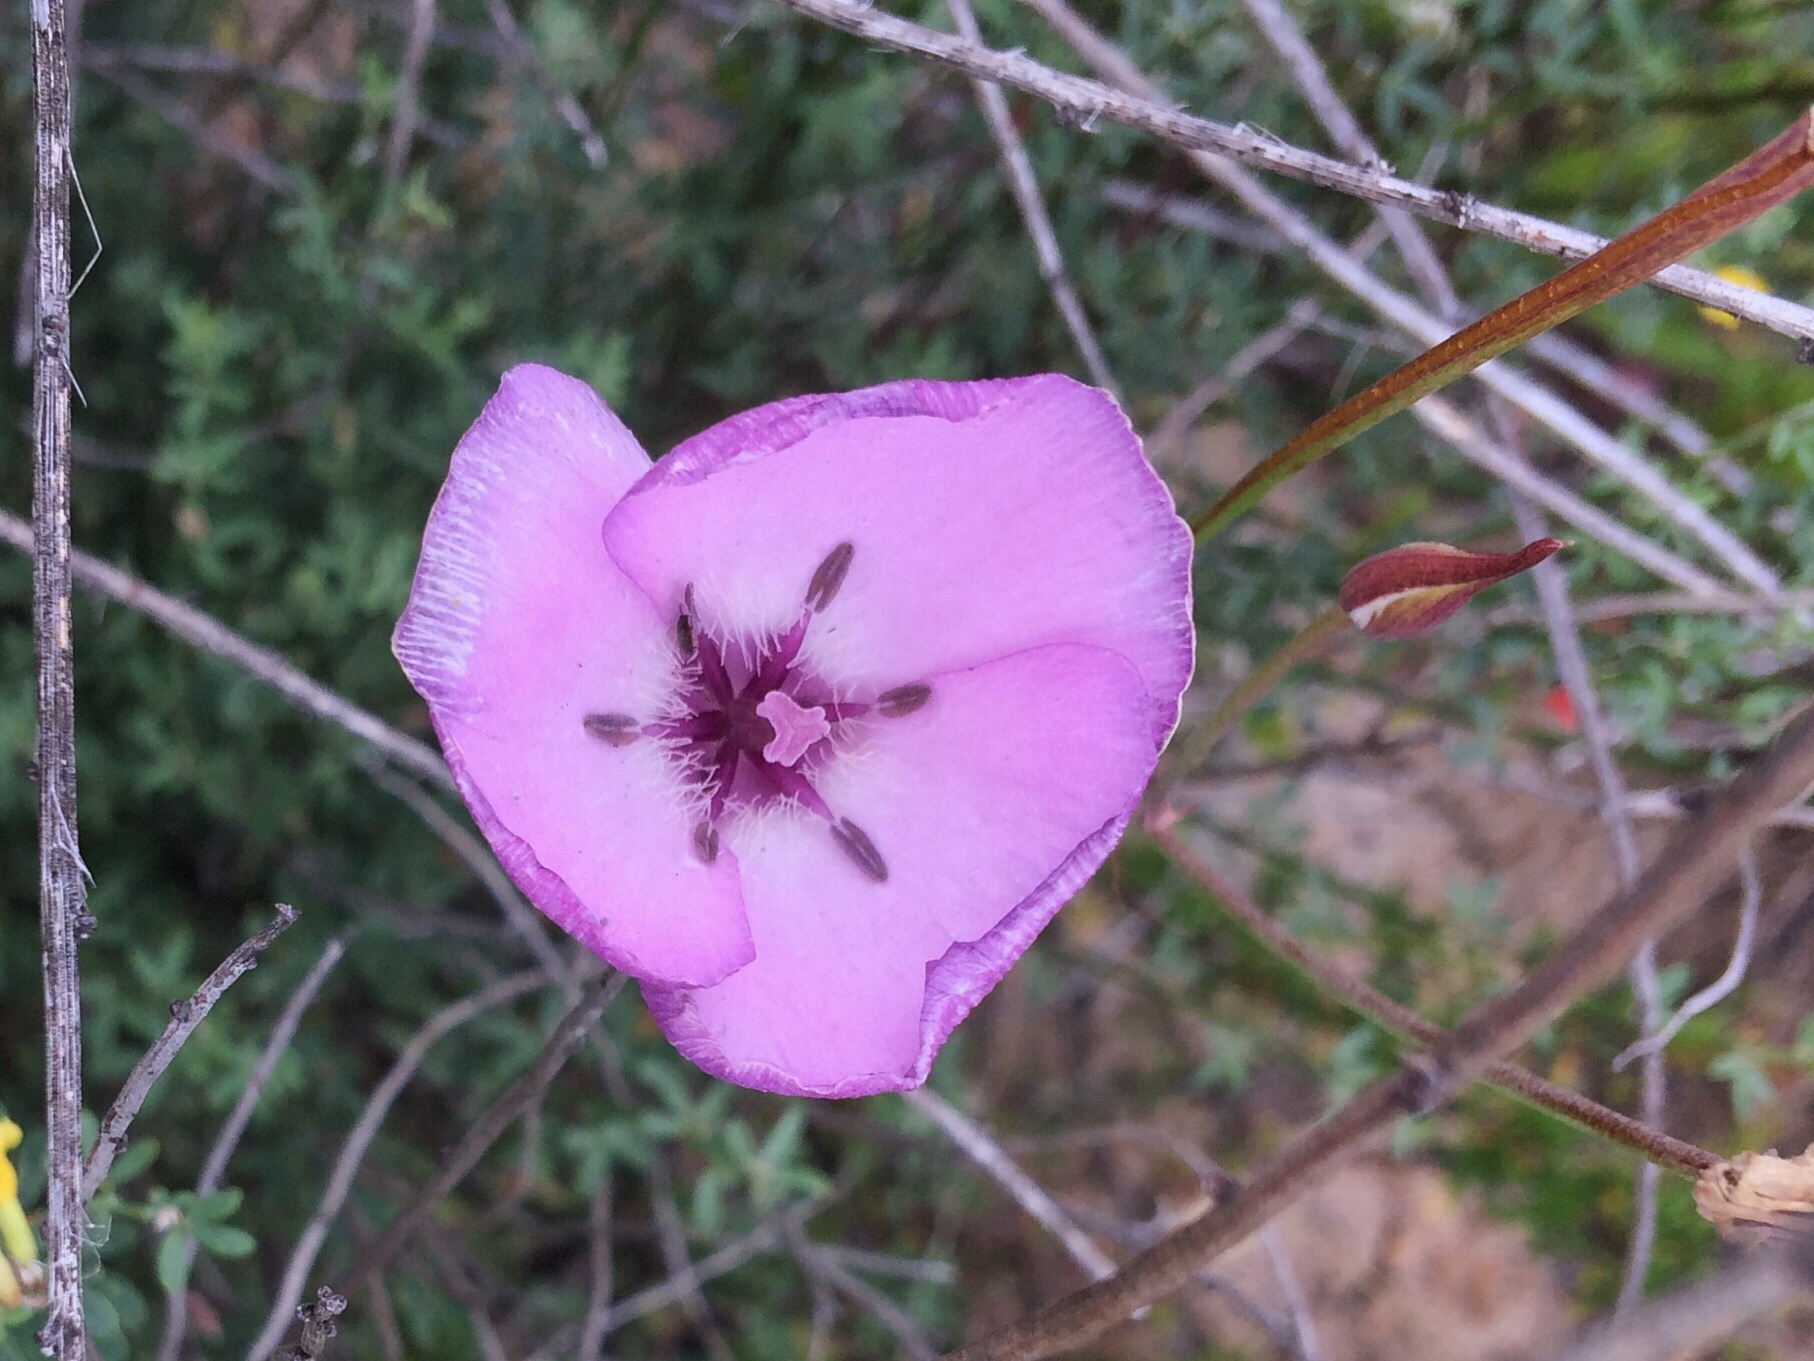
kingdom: Plantae
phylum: Tracheophyta
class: Liliopsida
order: Liliales
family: Liliaceae
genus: Calochortus
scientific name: Calochortus splendens
